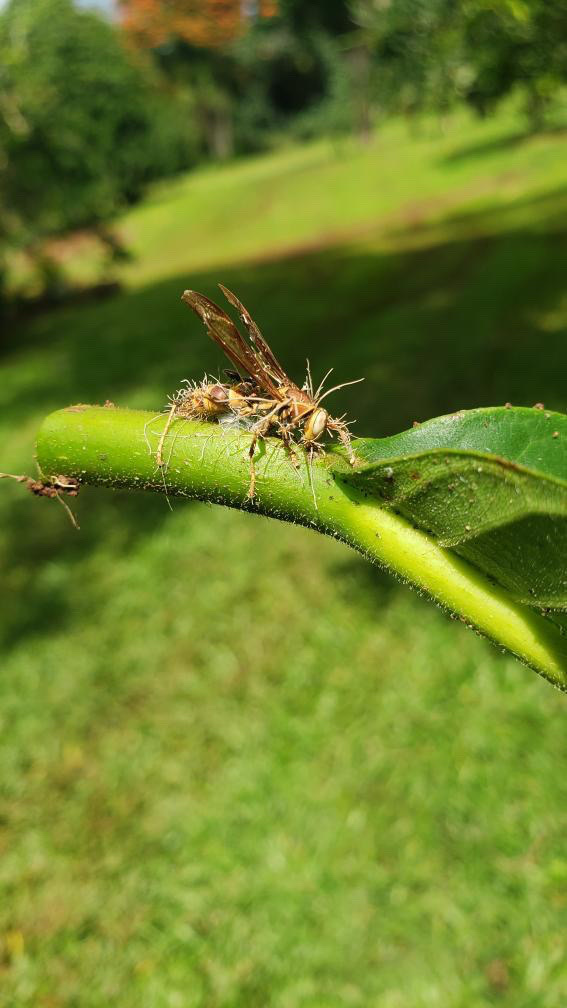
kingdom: Fungi
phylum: Ascomycota
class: Sordariomycetes
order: Hypocreales
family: Ophiocordycipitaceae
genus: Ophiocordyceps
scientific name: Ophiocordyceps humbertii
